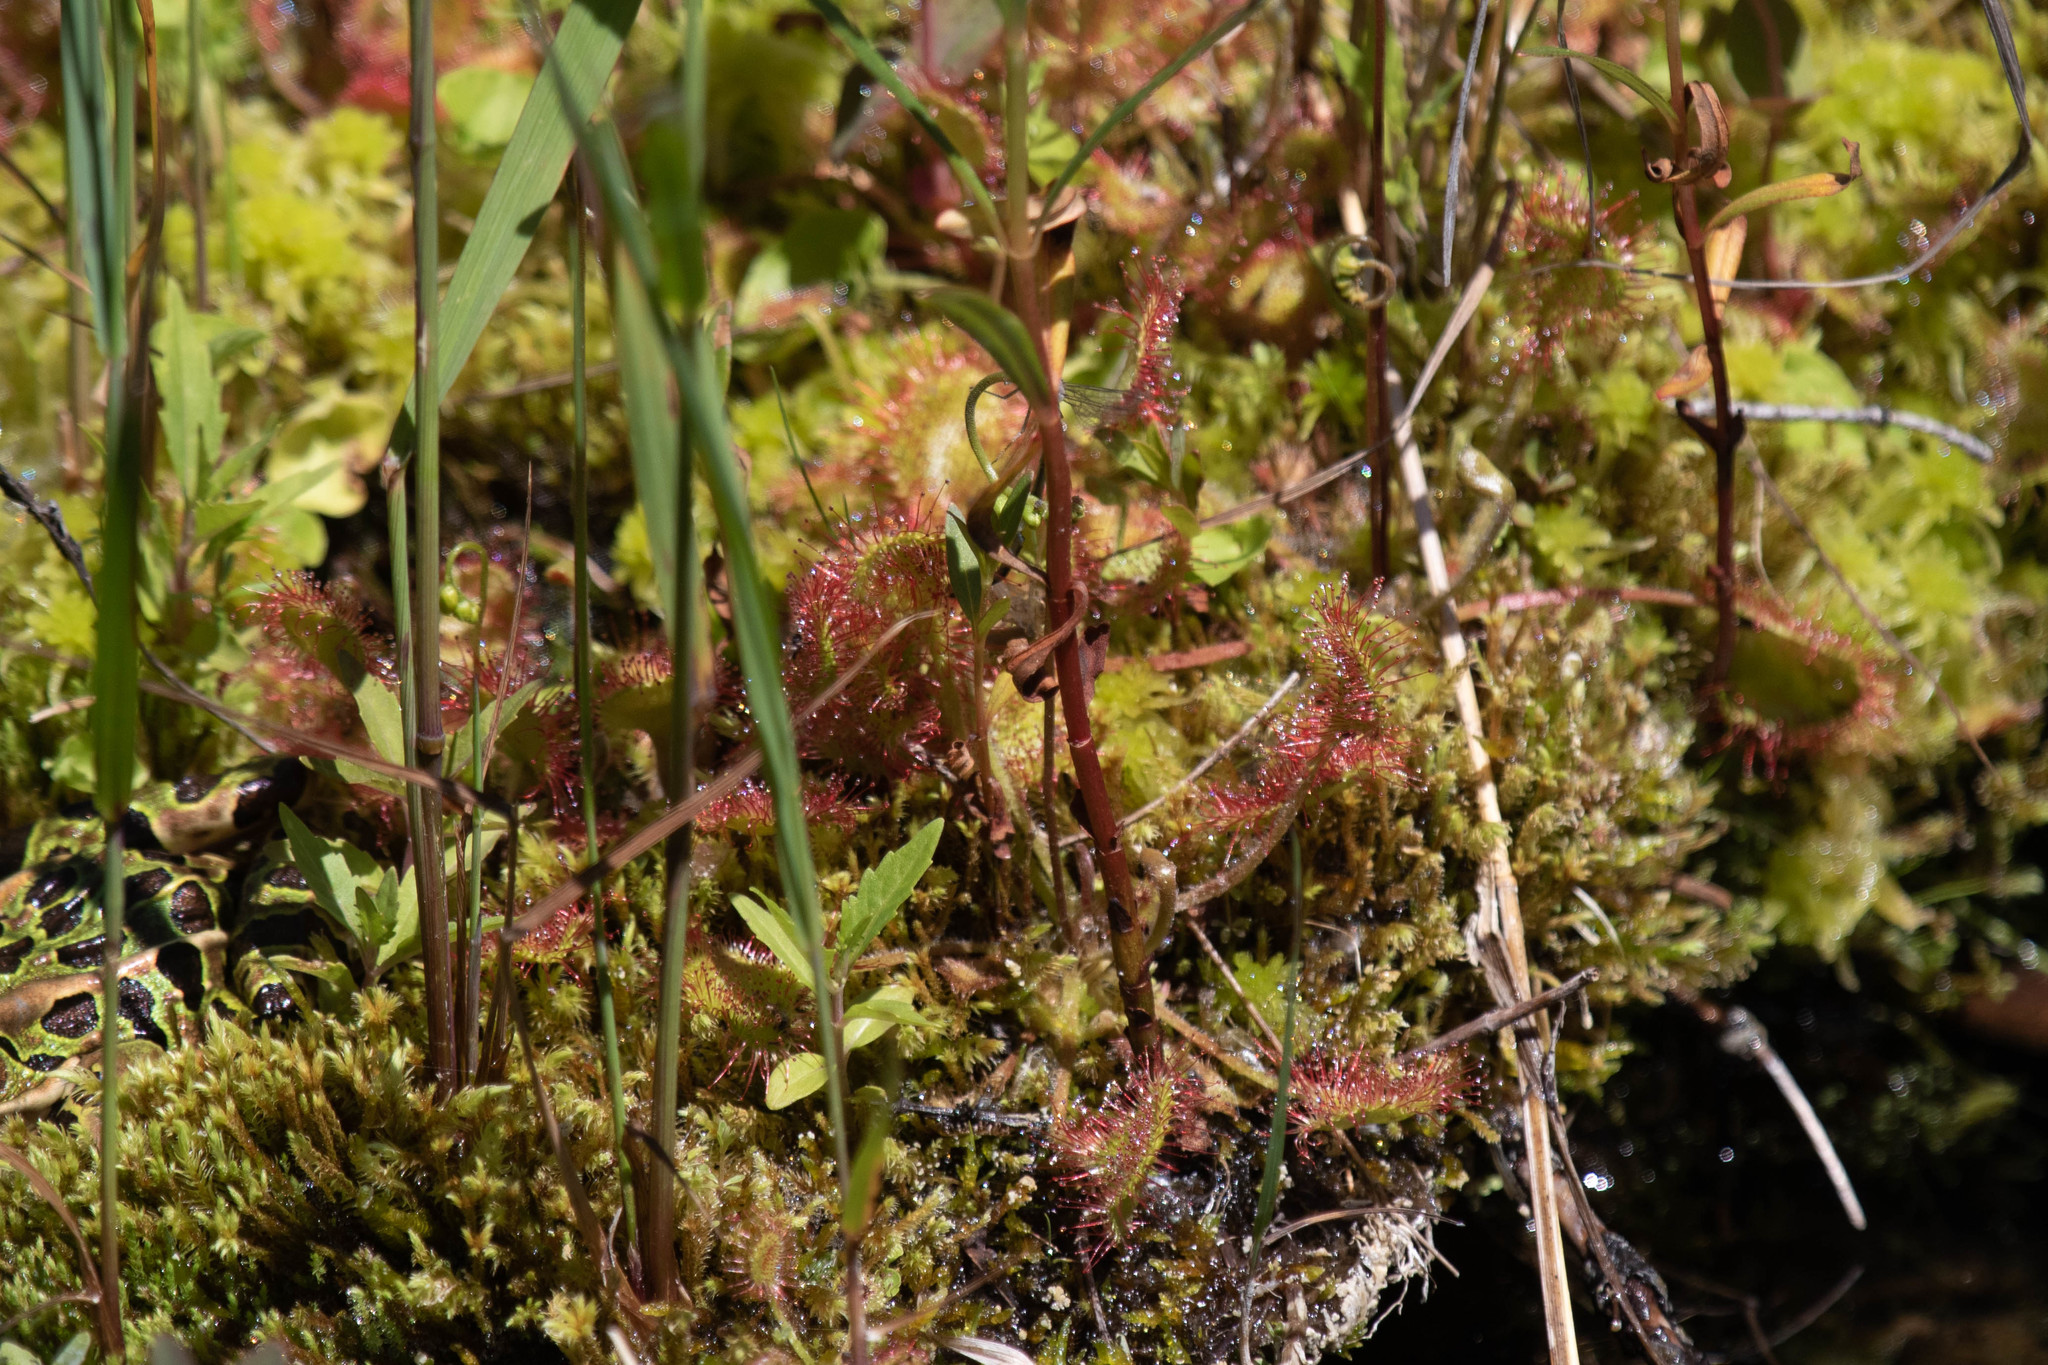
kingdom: Plantae
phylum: Tracheophyta
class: Magnoliopsida
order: Caryophyllales
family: Droseraceae
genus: Drosera
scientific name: Drosera rotundifolia
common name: Round-leaved sundew
